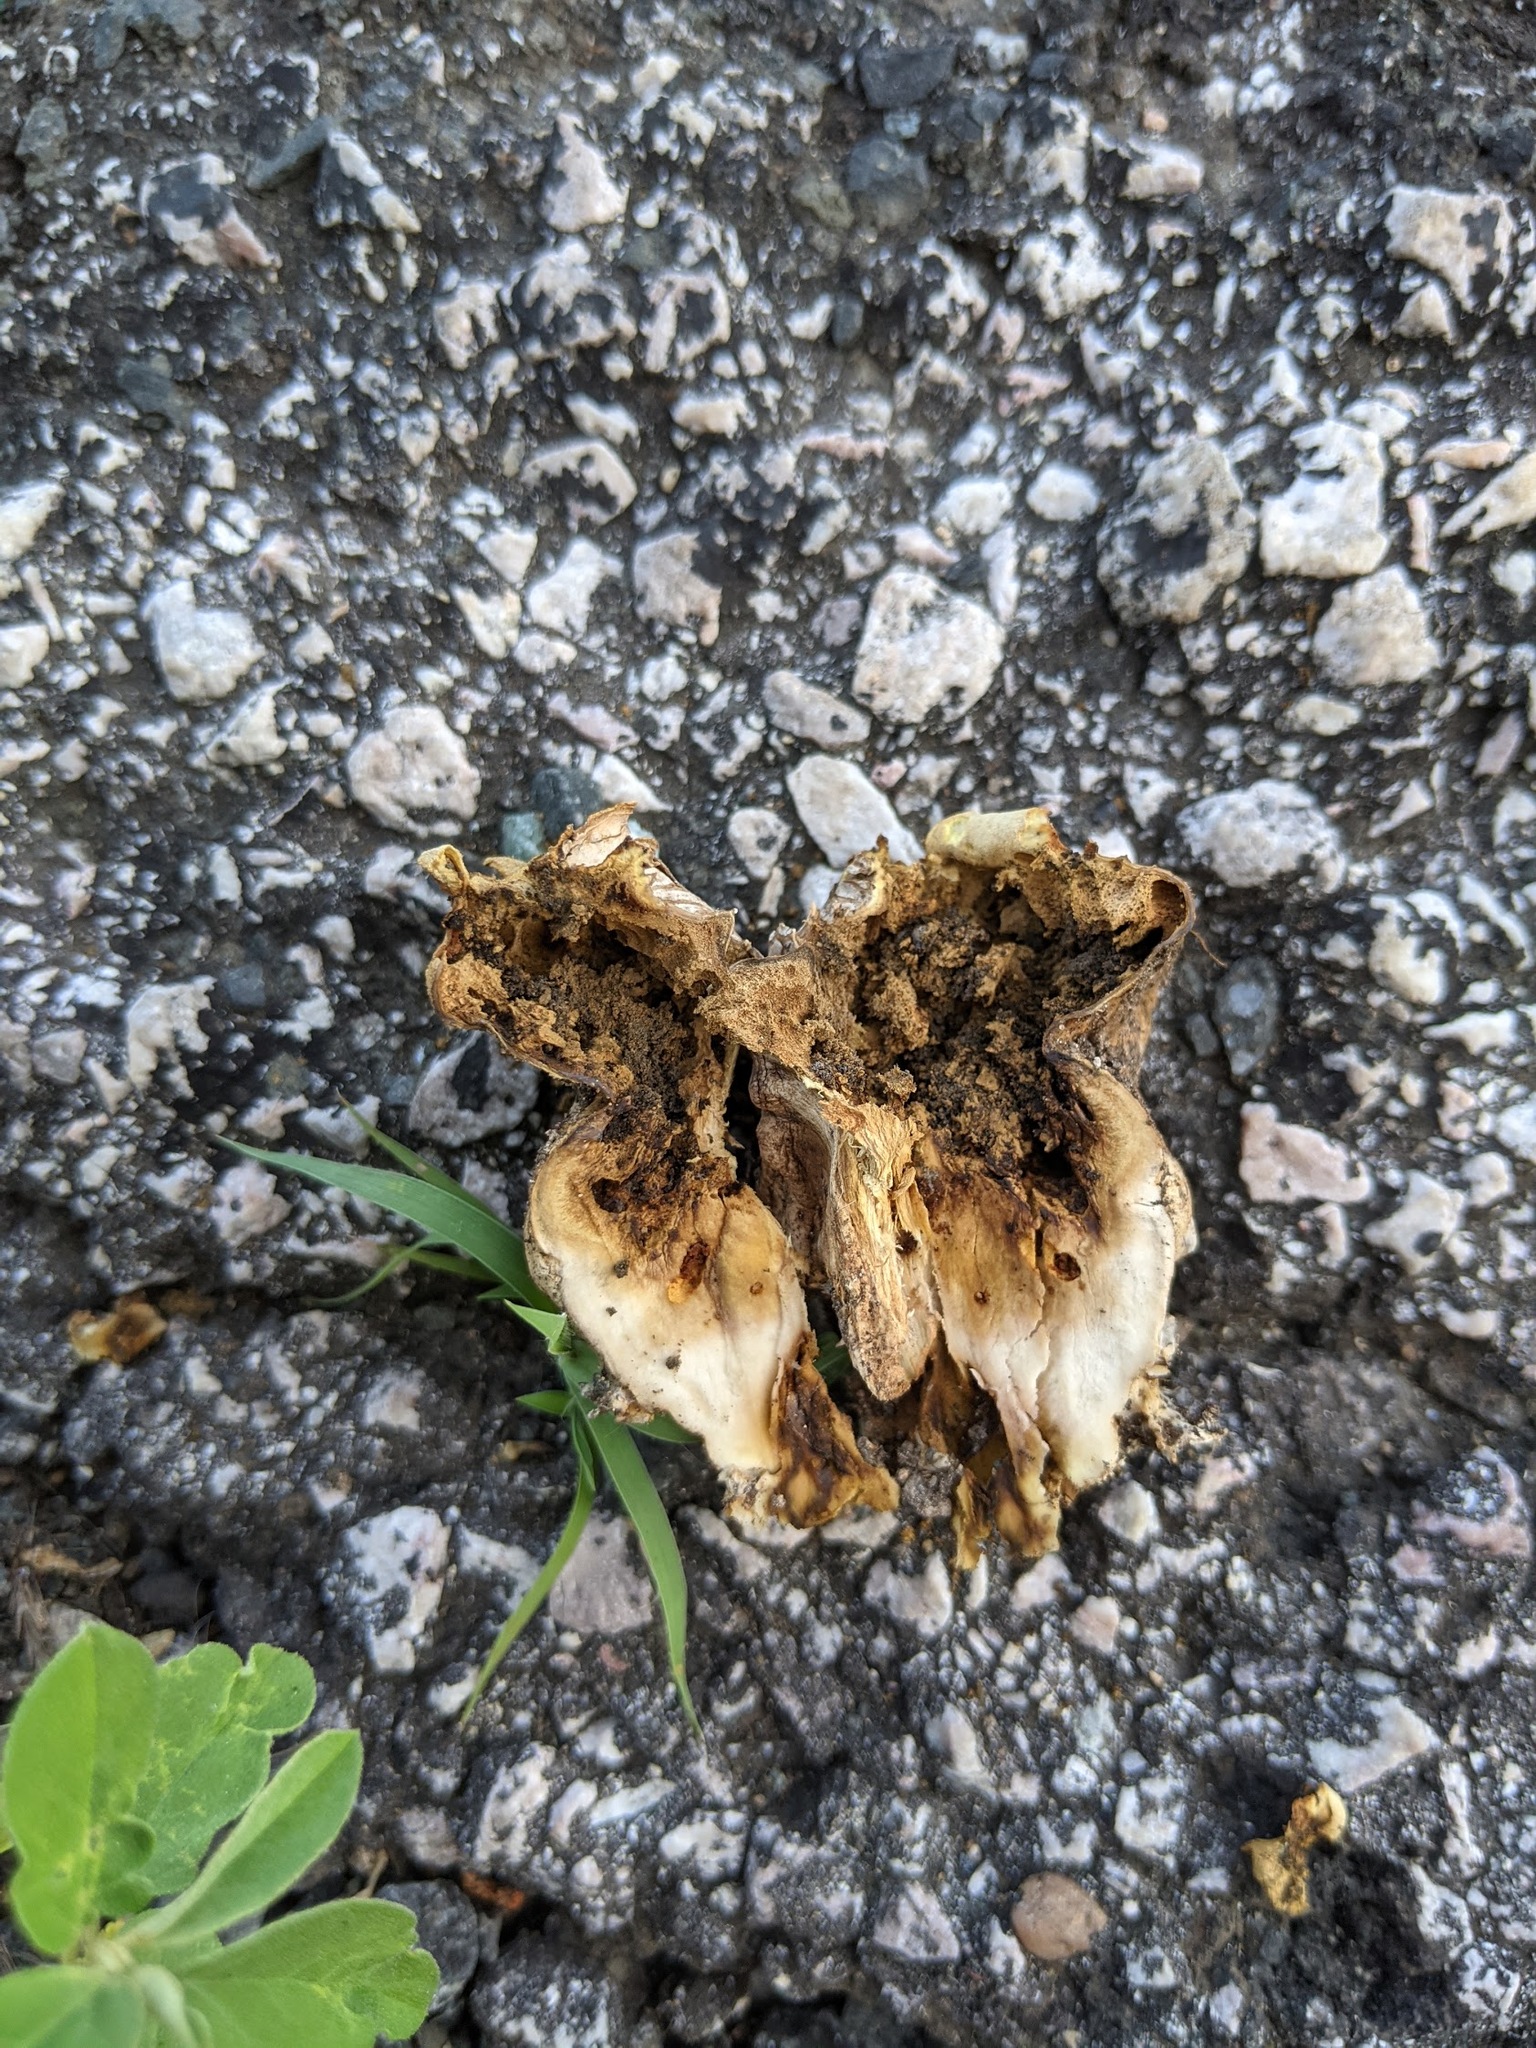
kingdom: Fungi
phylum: Basidiomycota
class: Agaricomycetes
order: Boletales
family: Sclerodermataceae
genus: Scleroderma
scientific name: Scleroderma citrinum
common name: Common earthball
